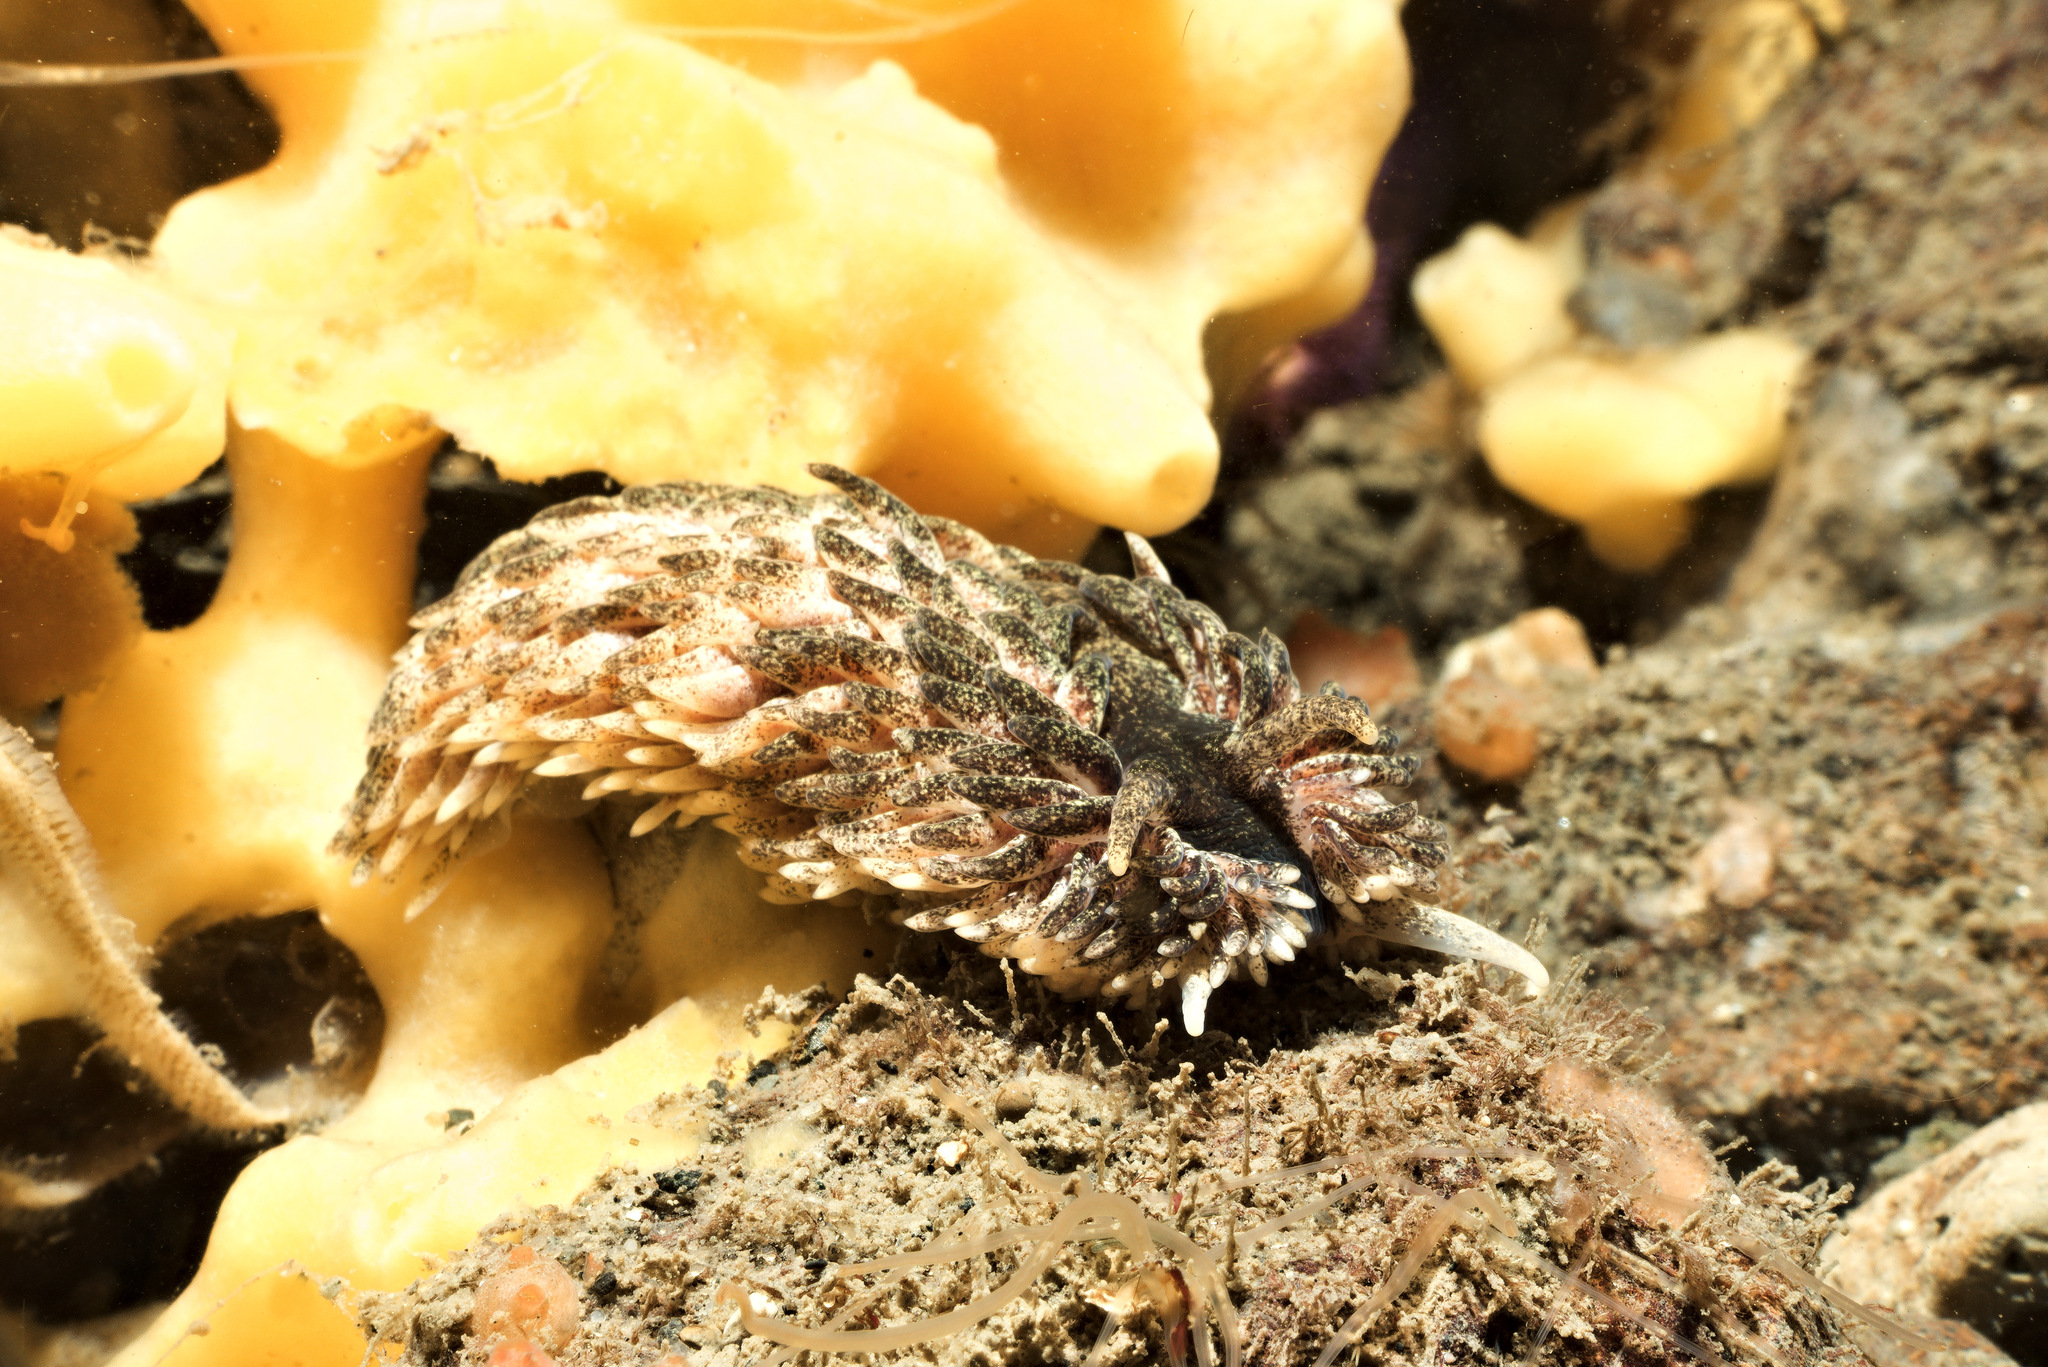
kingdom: Animalia
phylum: Mollusca
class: Gastropoda
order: Nudibranchia
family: Aeolidiidae
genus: Aeolidia
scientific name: Aeolidia papillosa
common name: Common grey sea slug
